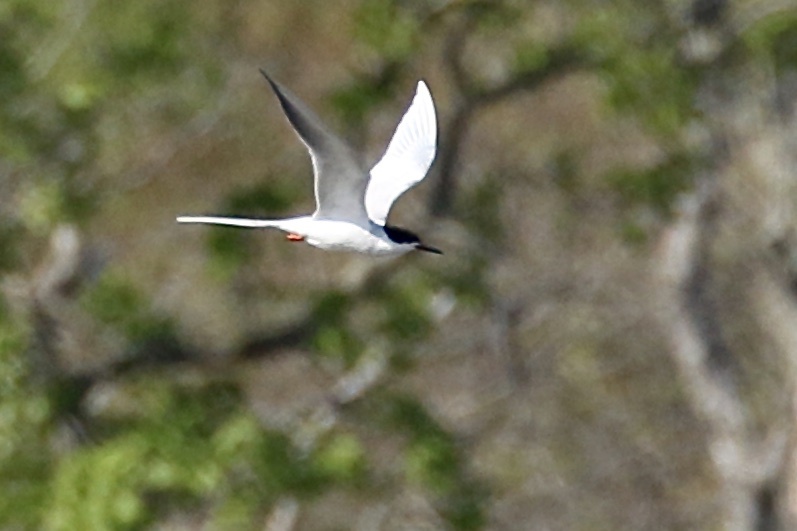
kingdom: Animalia
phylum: Chordata
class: Aves
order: Charadriiformes
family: Laridae
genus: Sterna
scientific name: Sterna forsteri
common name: Forster's tern
